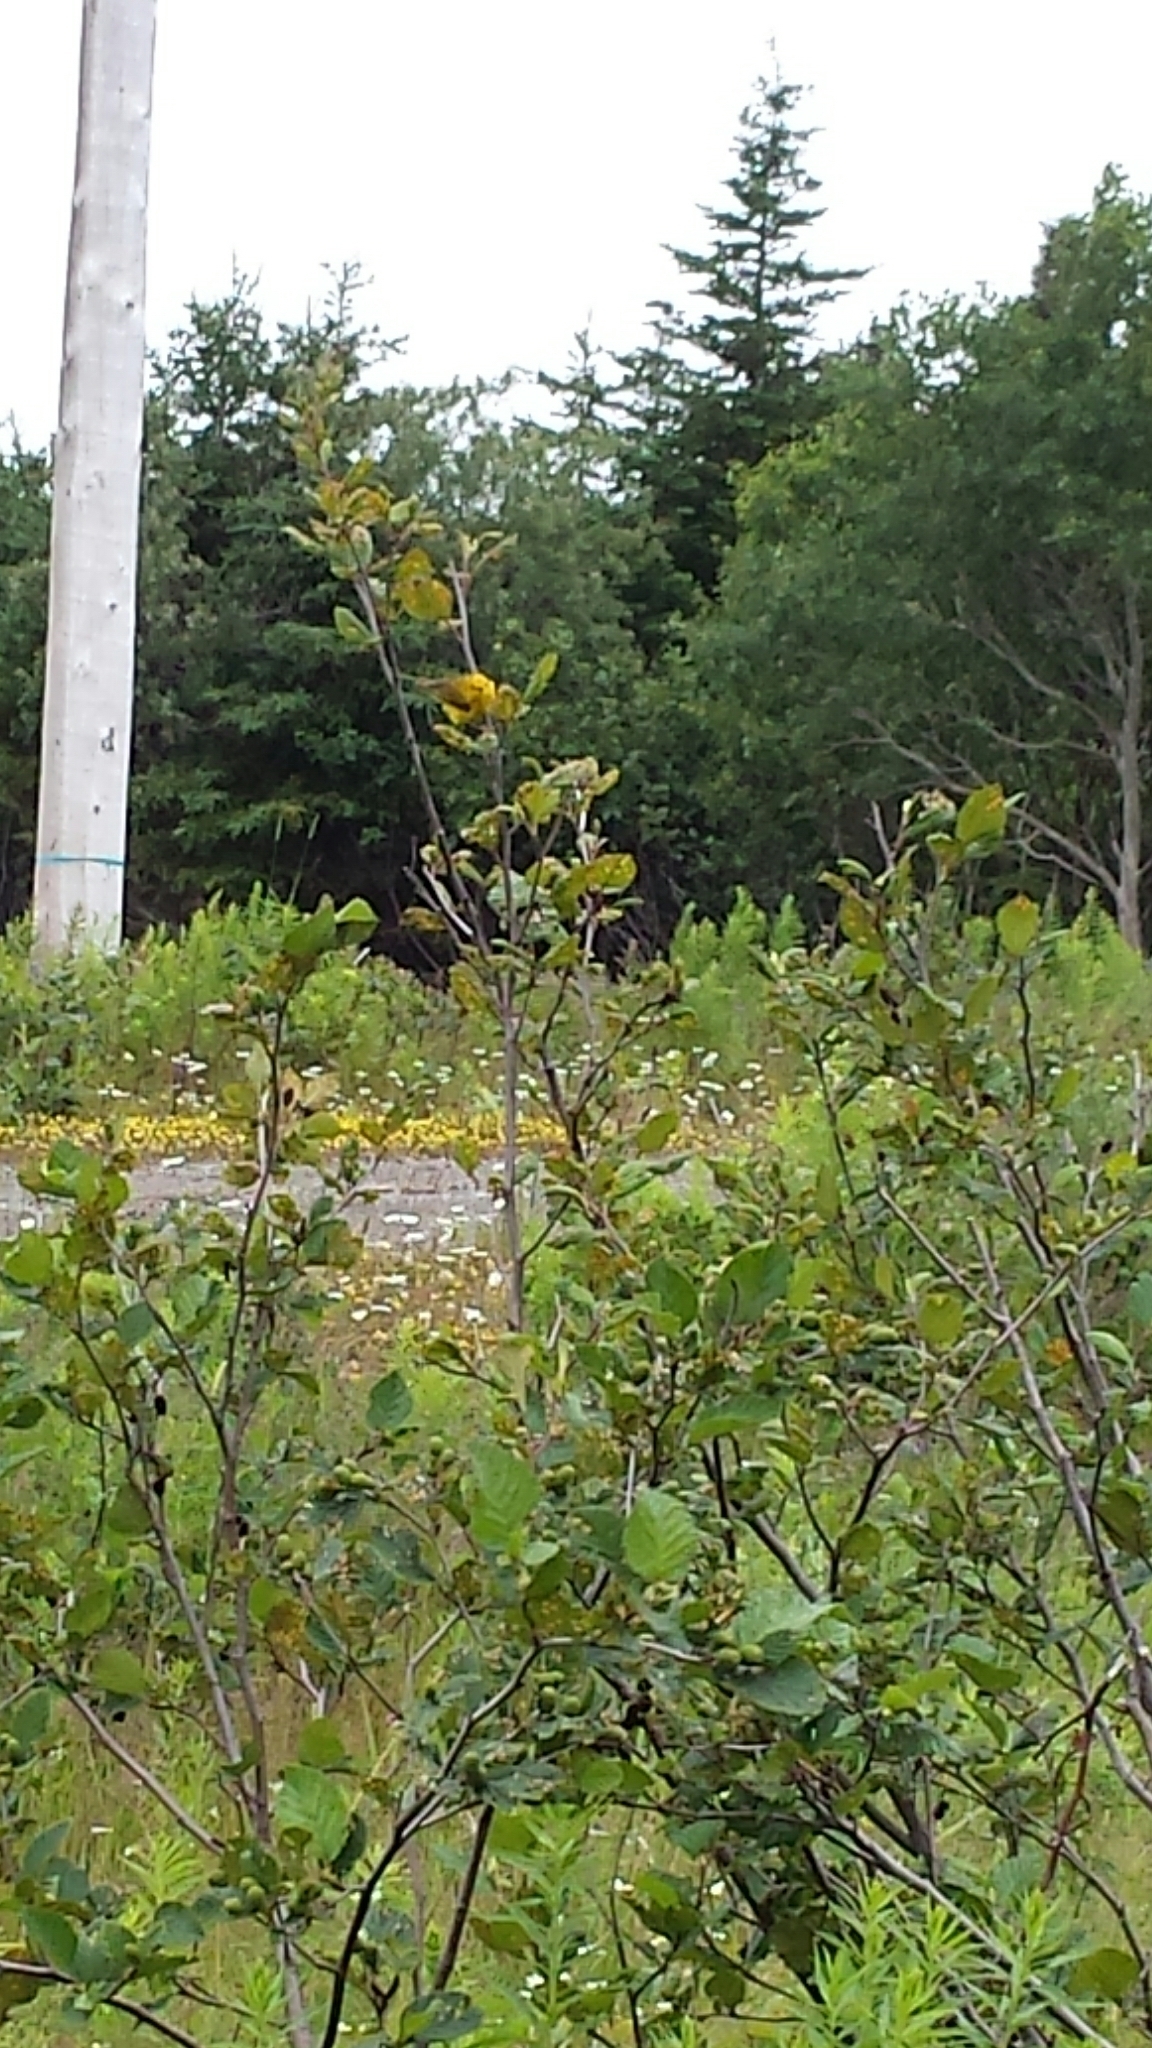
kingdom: Animalia
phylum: Chordata
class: Aves
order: Passeriformes
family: Parulidae
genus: Setophaga
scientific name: Setophaga petechia
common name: Yellow warbler
